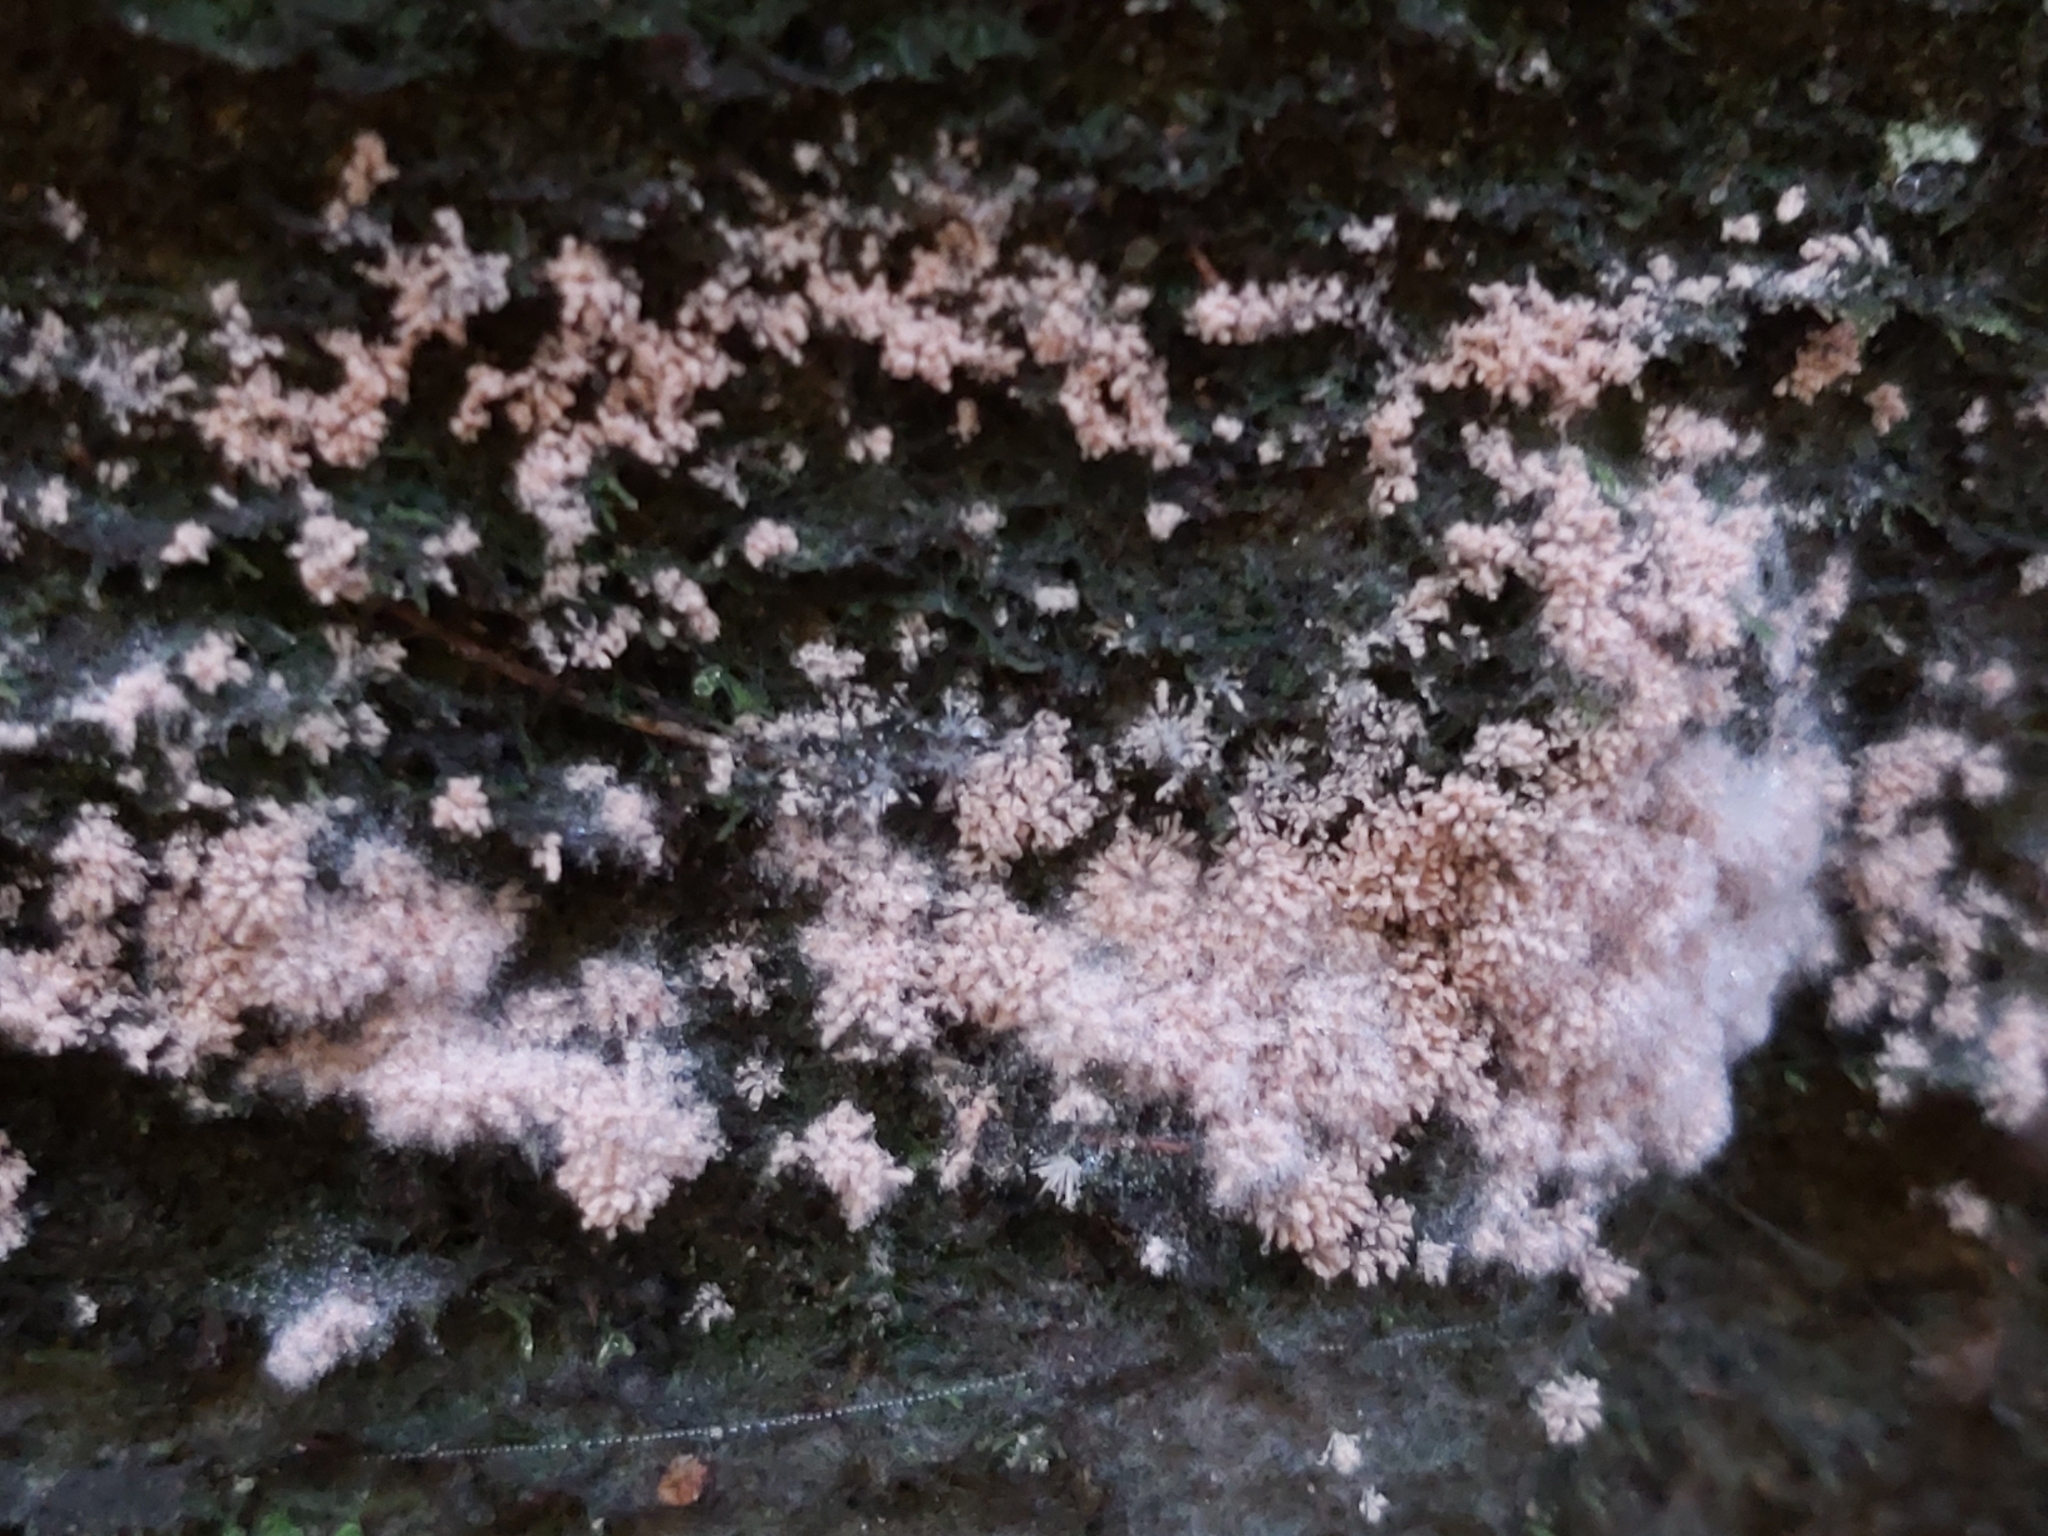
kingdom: Fungi
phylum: Ascomycota
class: Pezizomycetes
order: Pezizales
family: Pezizaceae
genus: Chromelosporiopsis
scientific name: Chromelosporiopsis carnea
